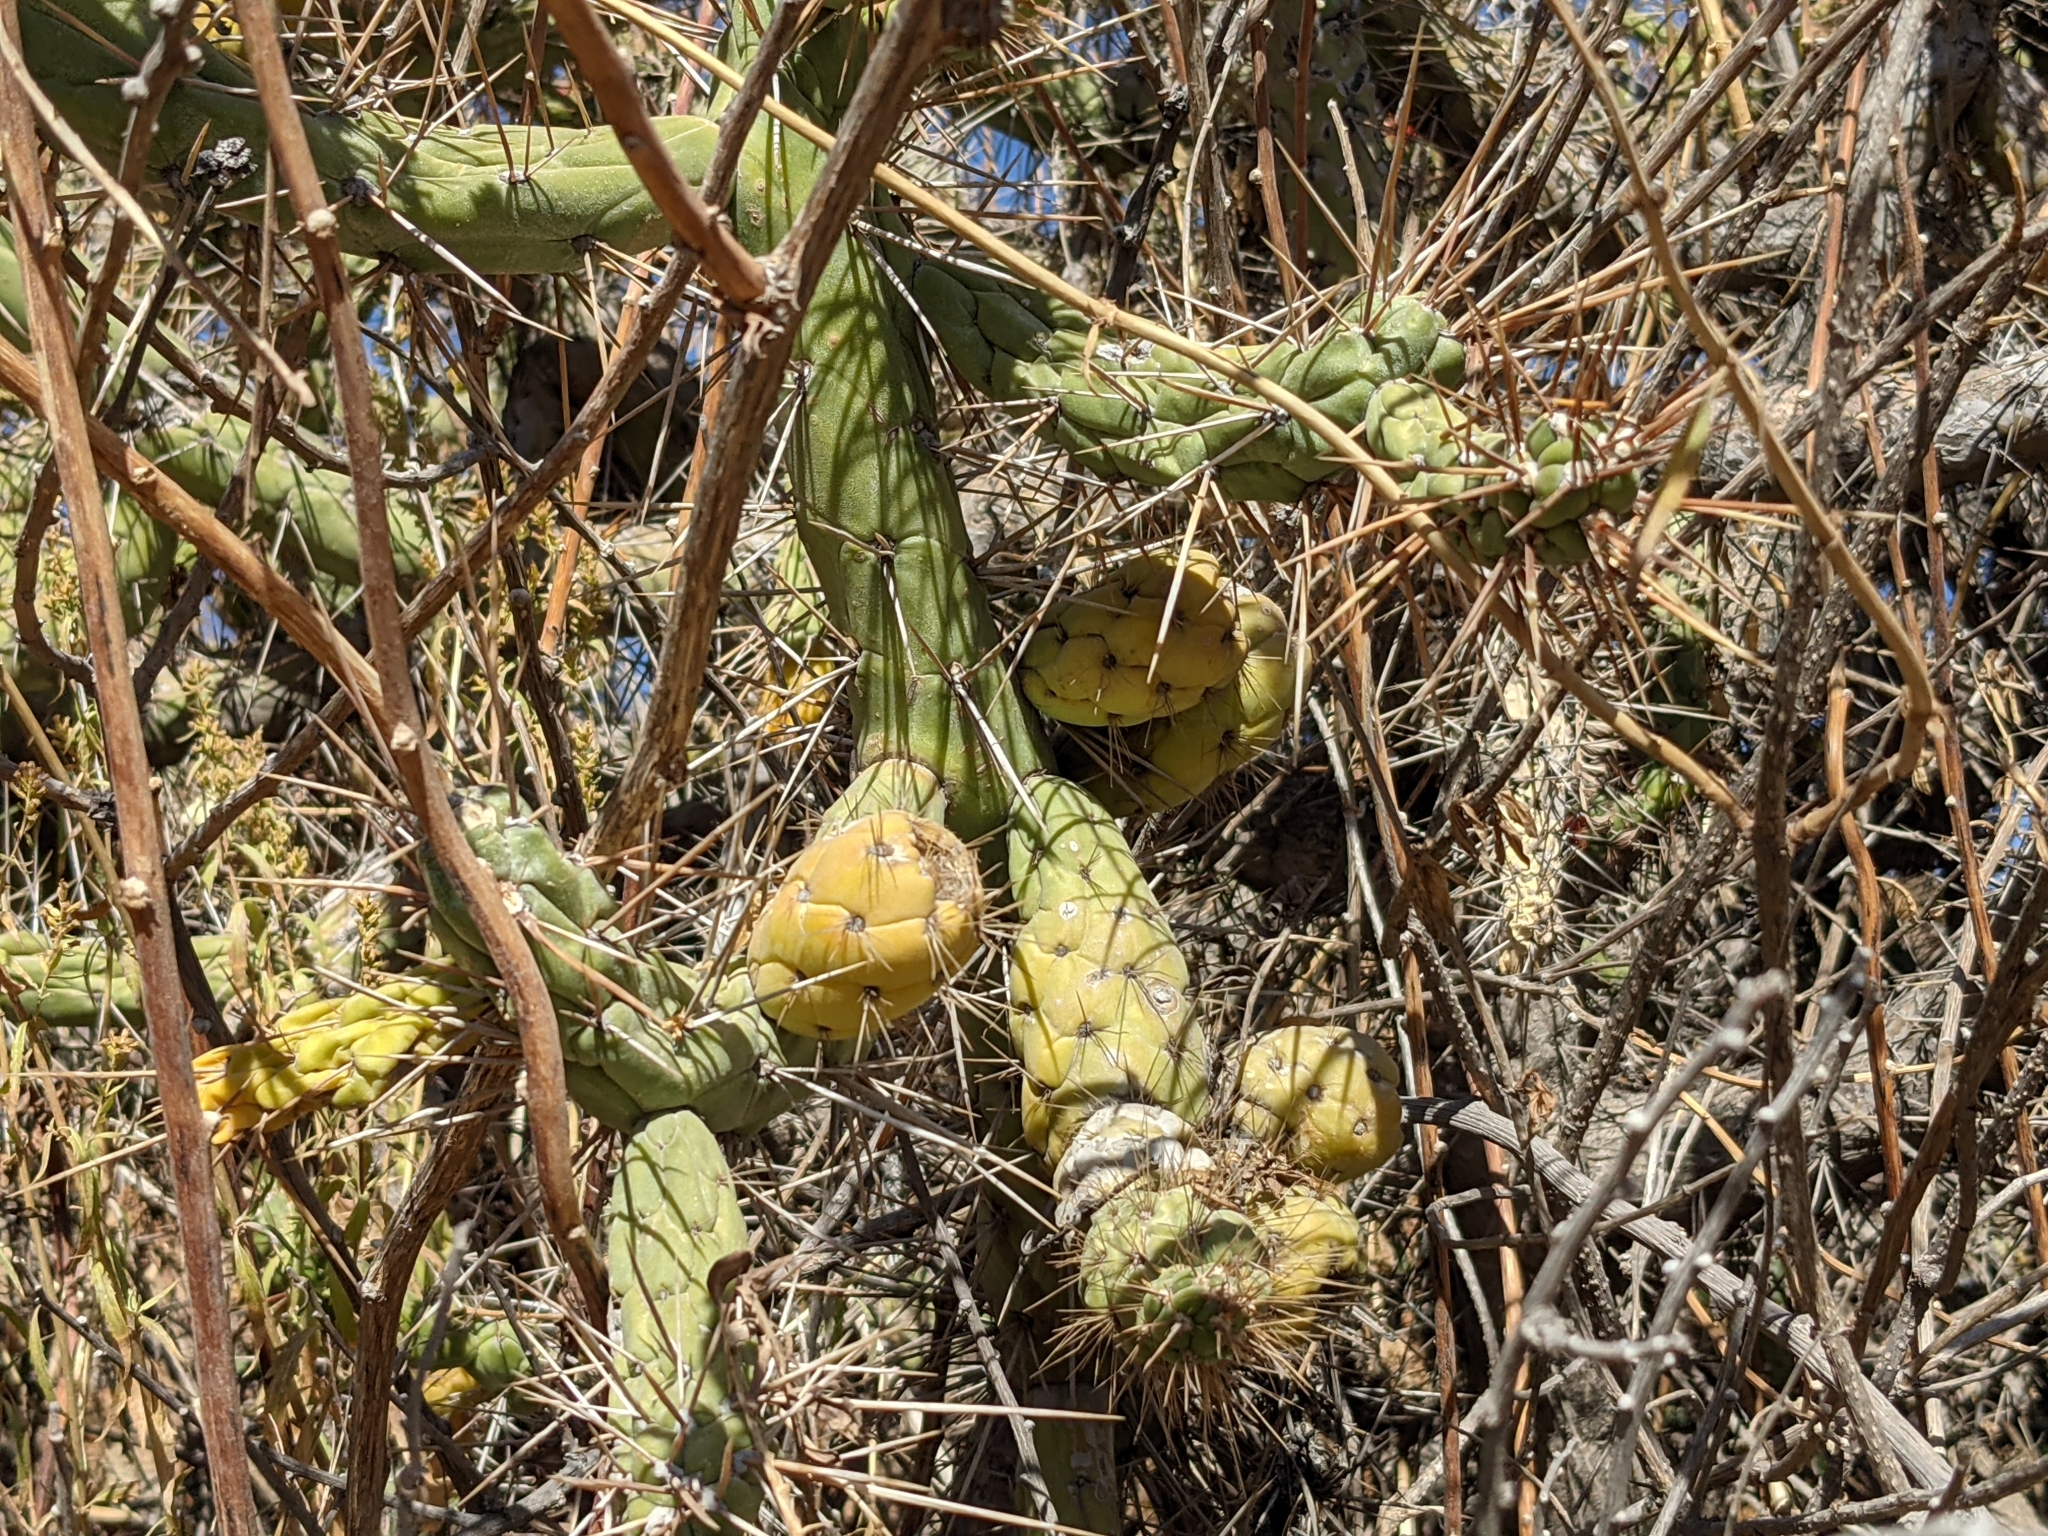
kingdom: Plantae
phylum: Tracheophyta
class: Magnoliopsida
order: Caryophyllales
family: Cactaceae
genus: Austrocylindropuntia
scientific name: Austrocylindropuntia subulata
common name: Eve's needle cactus
